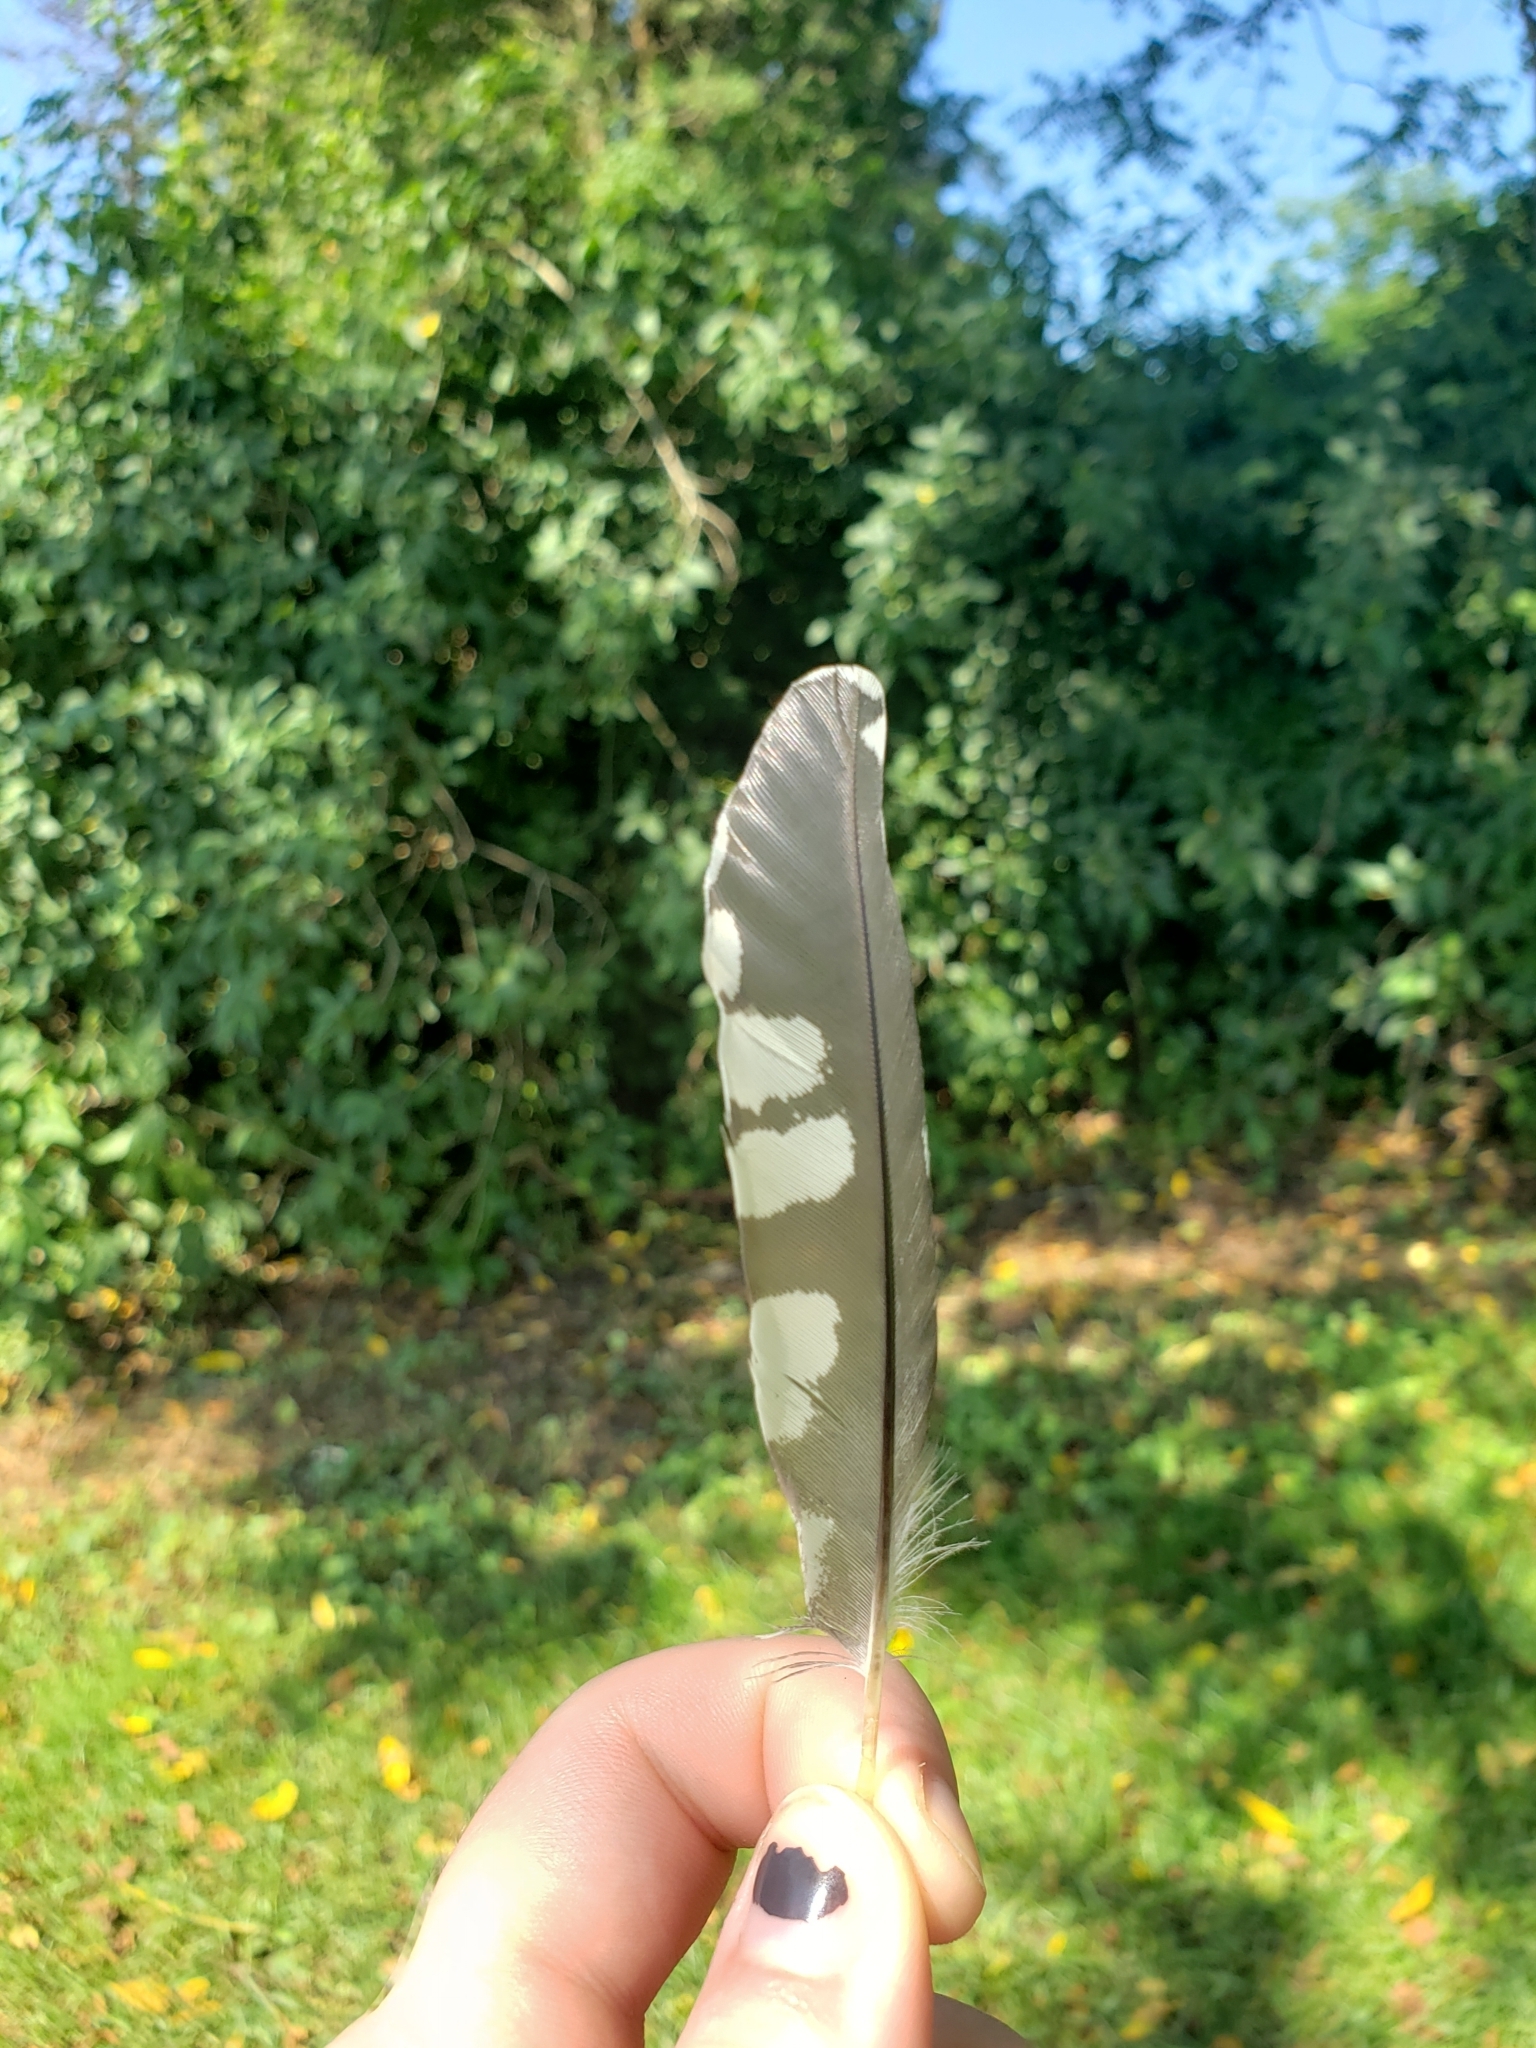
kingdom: Animalia
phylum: Chordata
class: Aves
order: Piciformes
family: Picidae
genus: Melanerpes
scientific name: Melanerpes carolinus
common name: Red-bellied woodpecker
